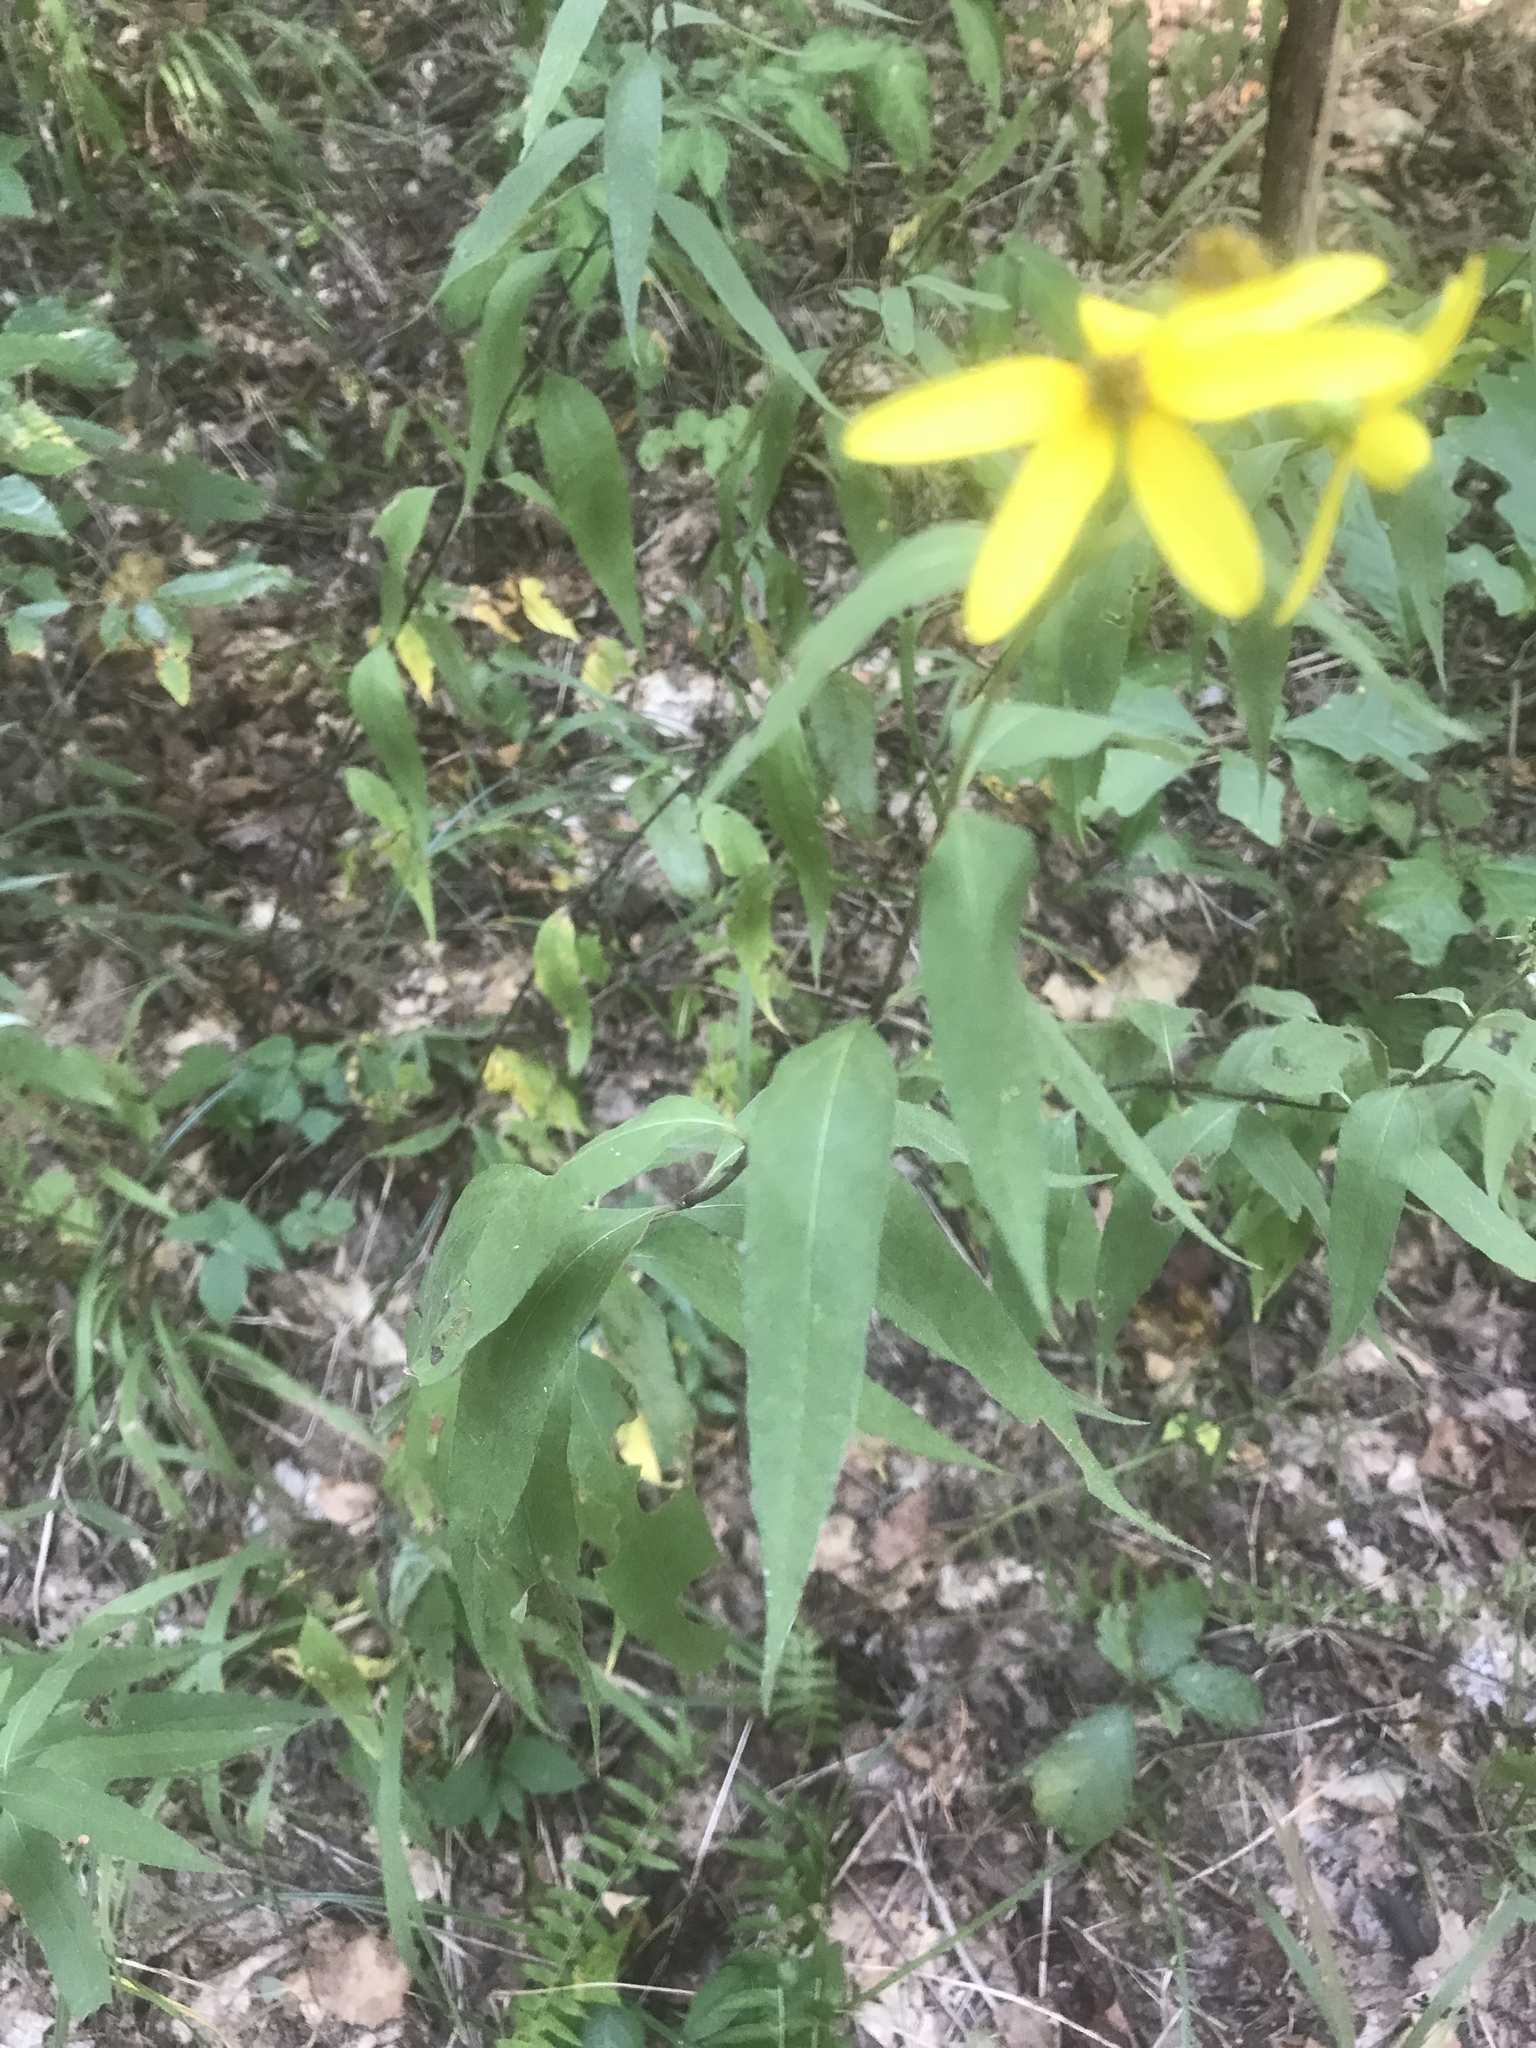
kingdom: Plantae
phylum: Tracheophyta
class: Magnoliopsida
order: Asterales
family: Asteraceae
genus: Helianthus
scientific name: Helianthus smithii
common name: Smith's sunflower
